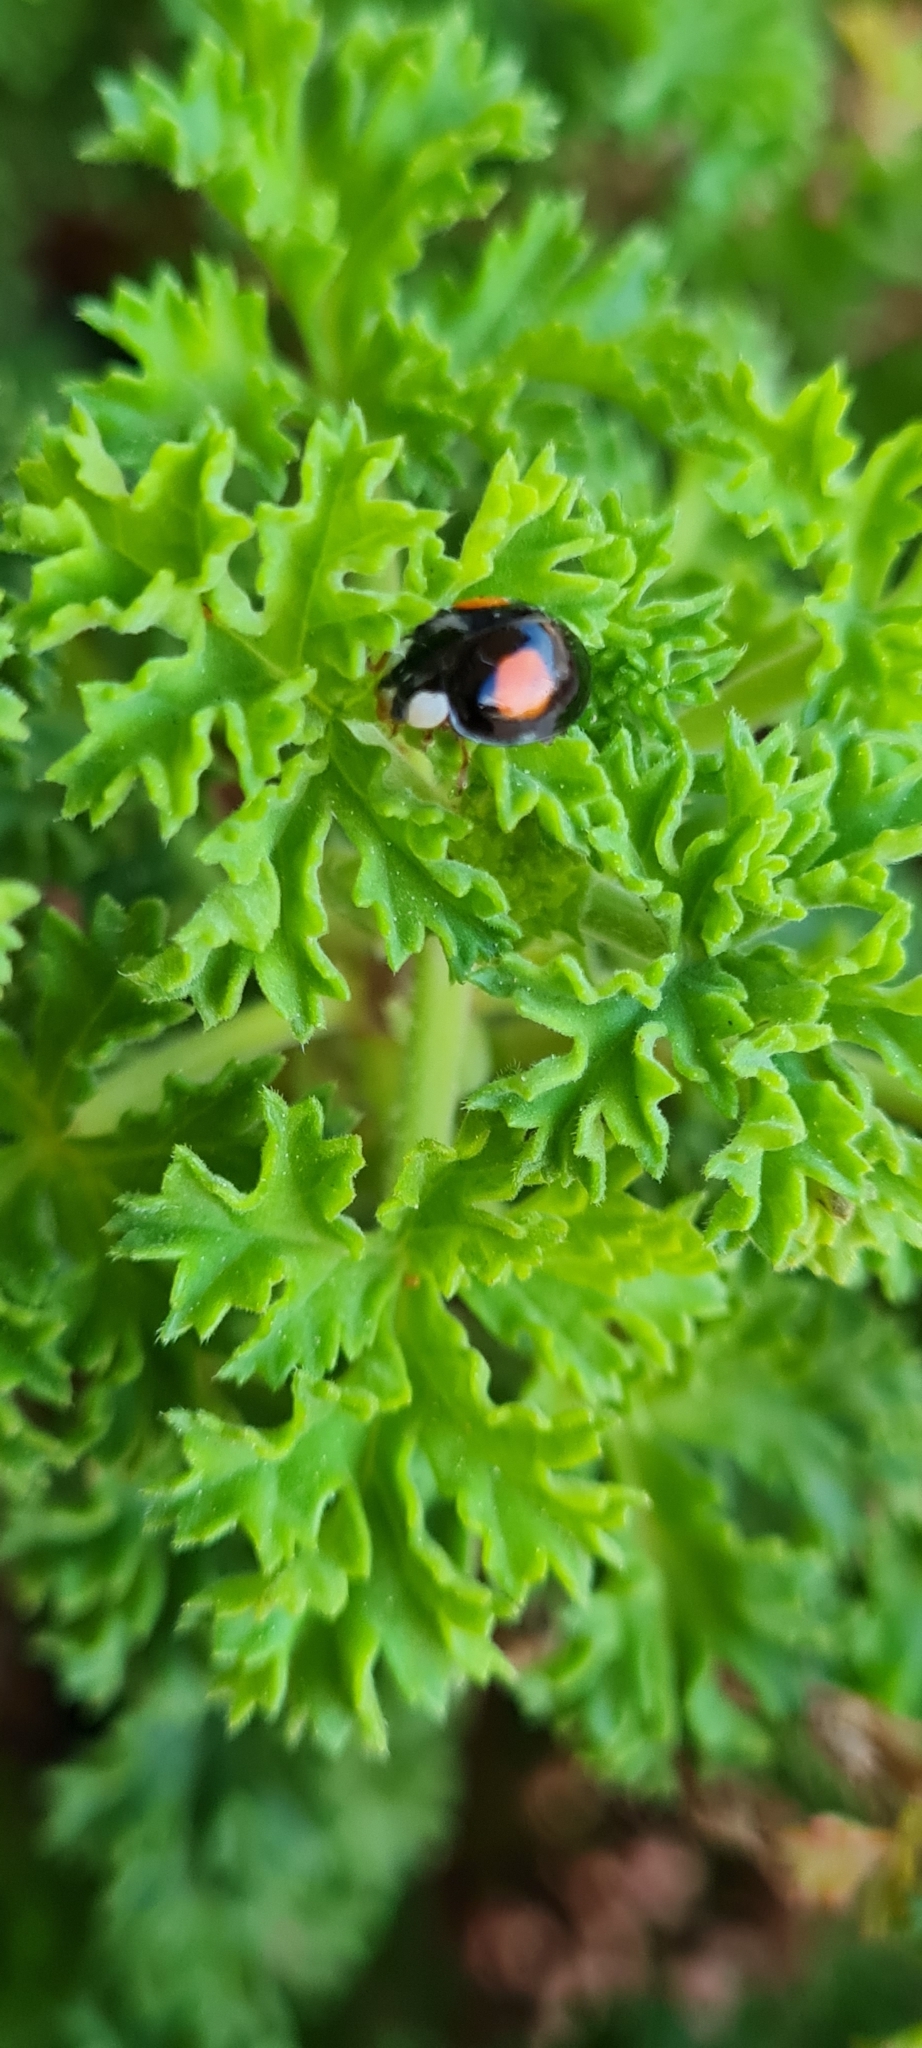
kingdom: Animalia
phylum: Arthropoda
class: Insecta
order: Coleoptera
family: Coccinellidae
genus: Harmonia
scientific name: Harmonia axyridis
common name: Harlequin ladybird
